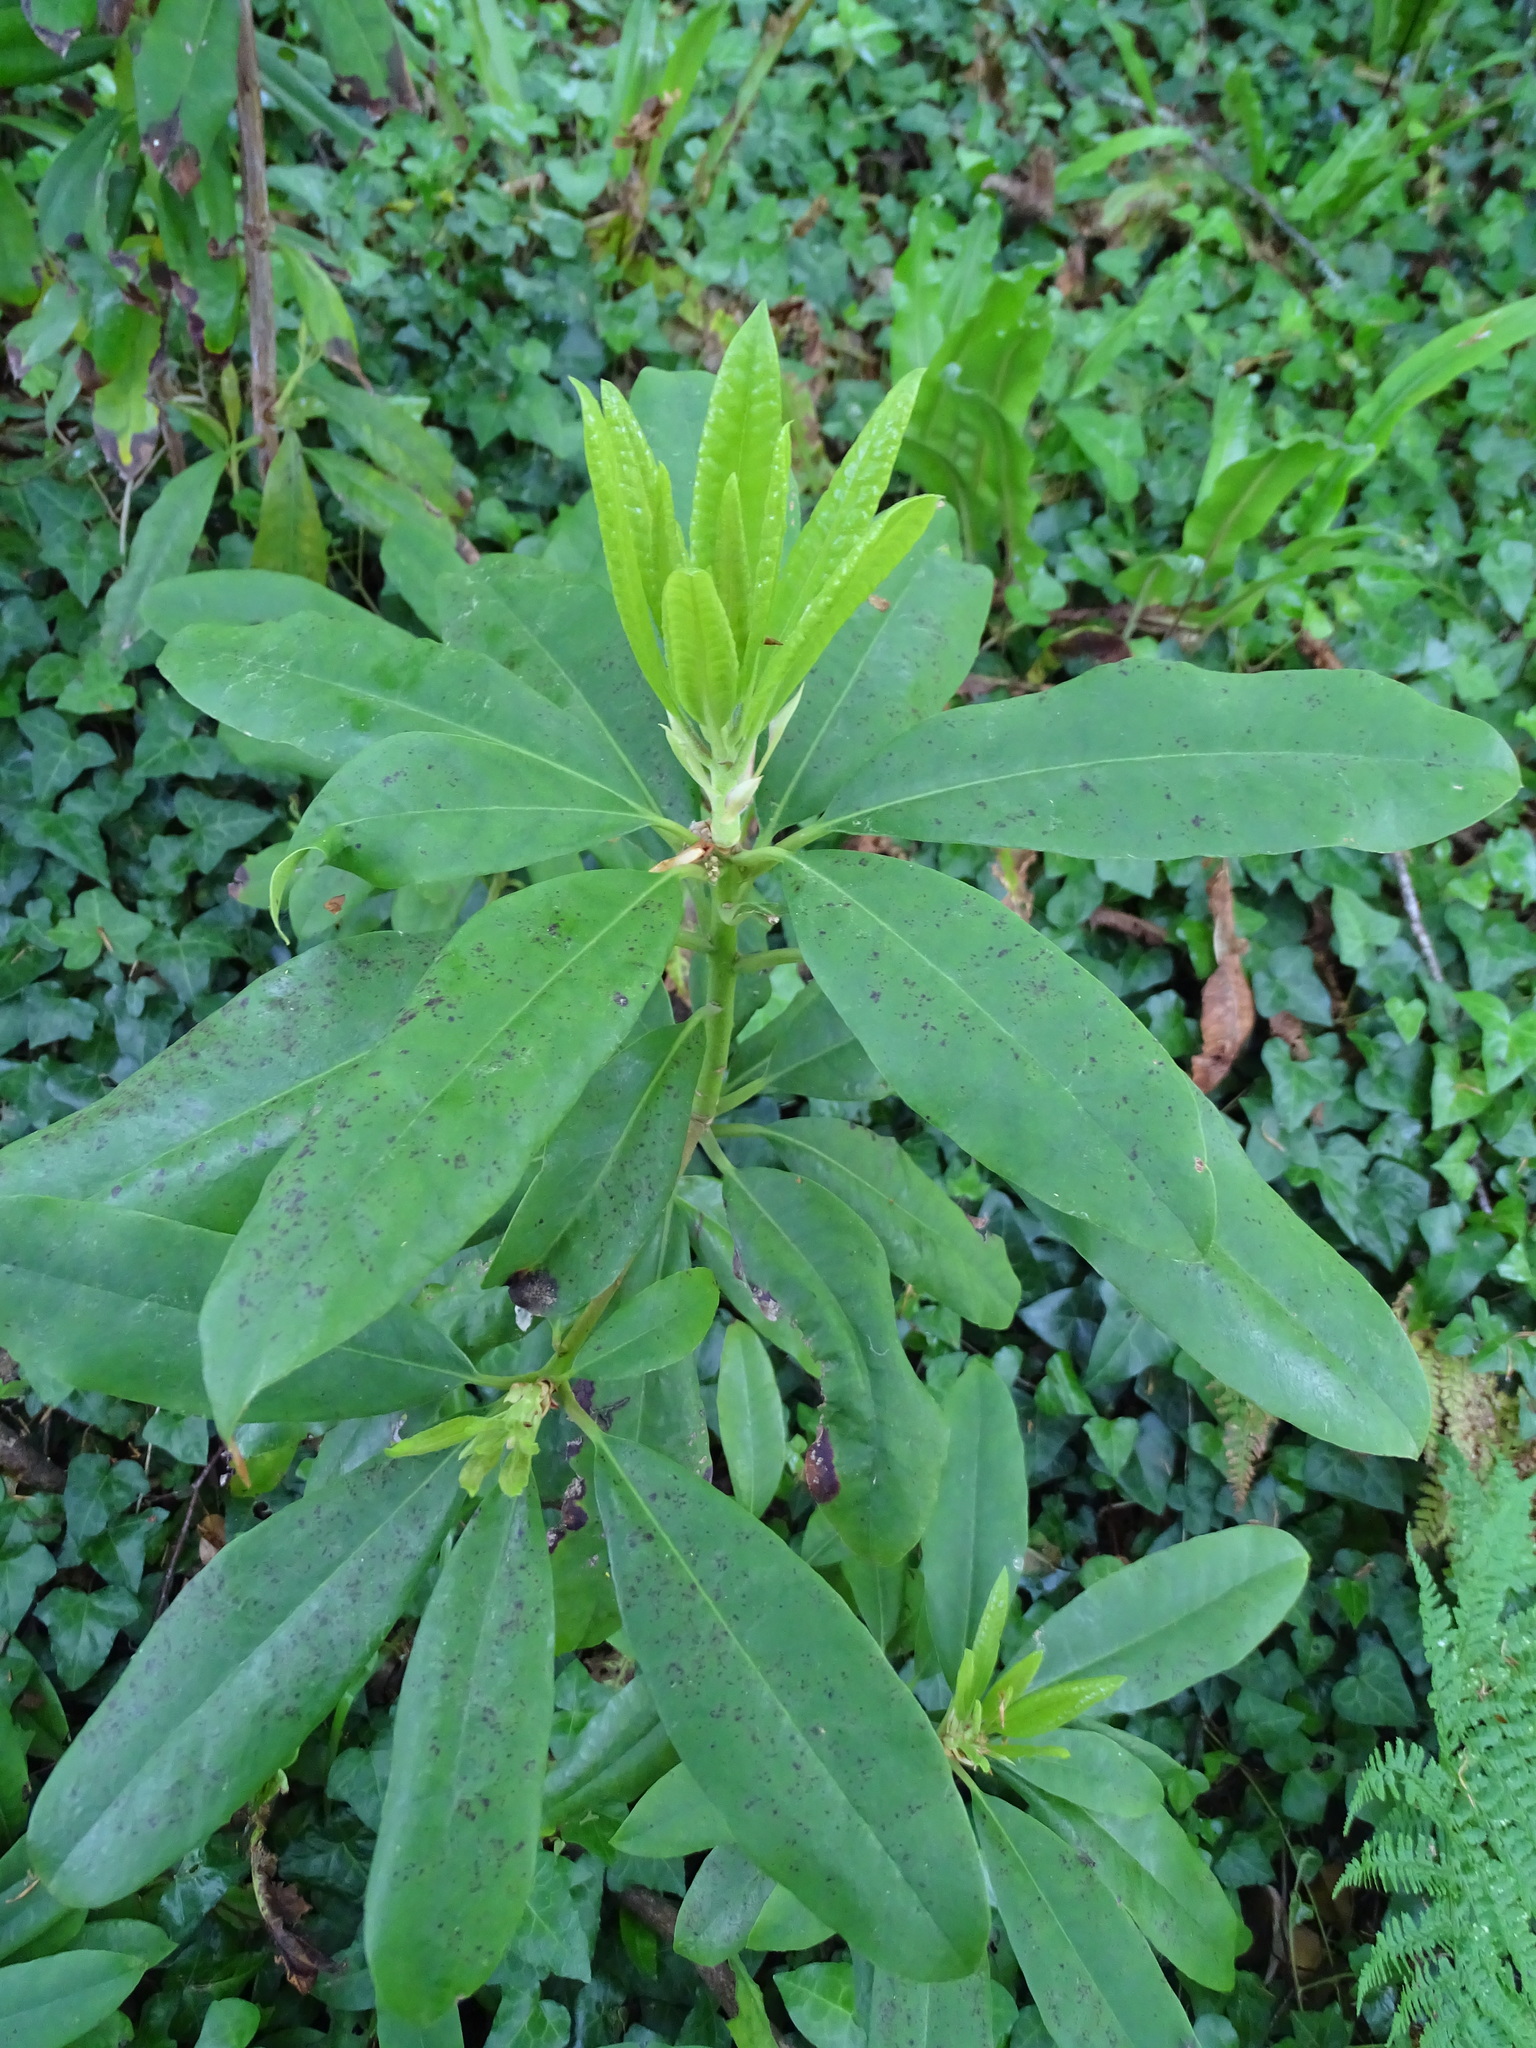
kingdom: Plantae
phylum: Tracheophyta
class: Magnoliopsida
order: Ericales
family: Ericaceae
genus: Rhododendron
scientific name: Rhododendron ponticum
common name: Rhododendron
